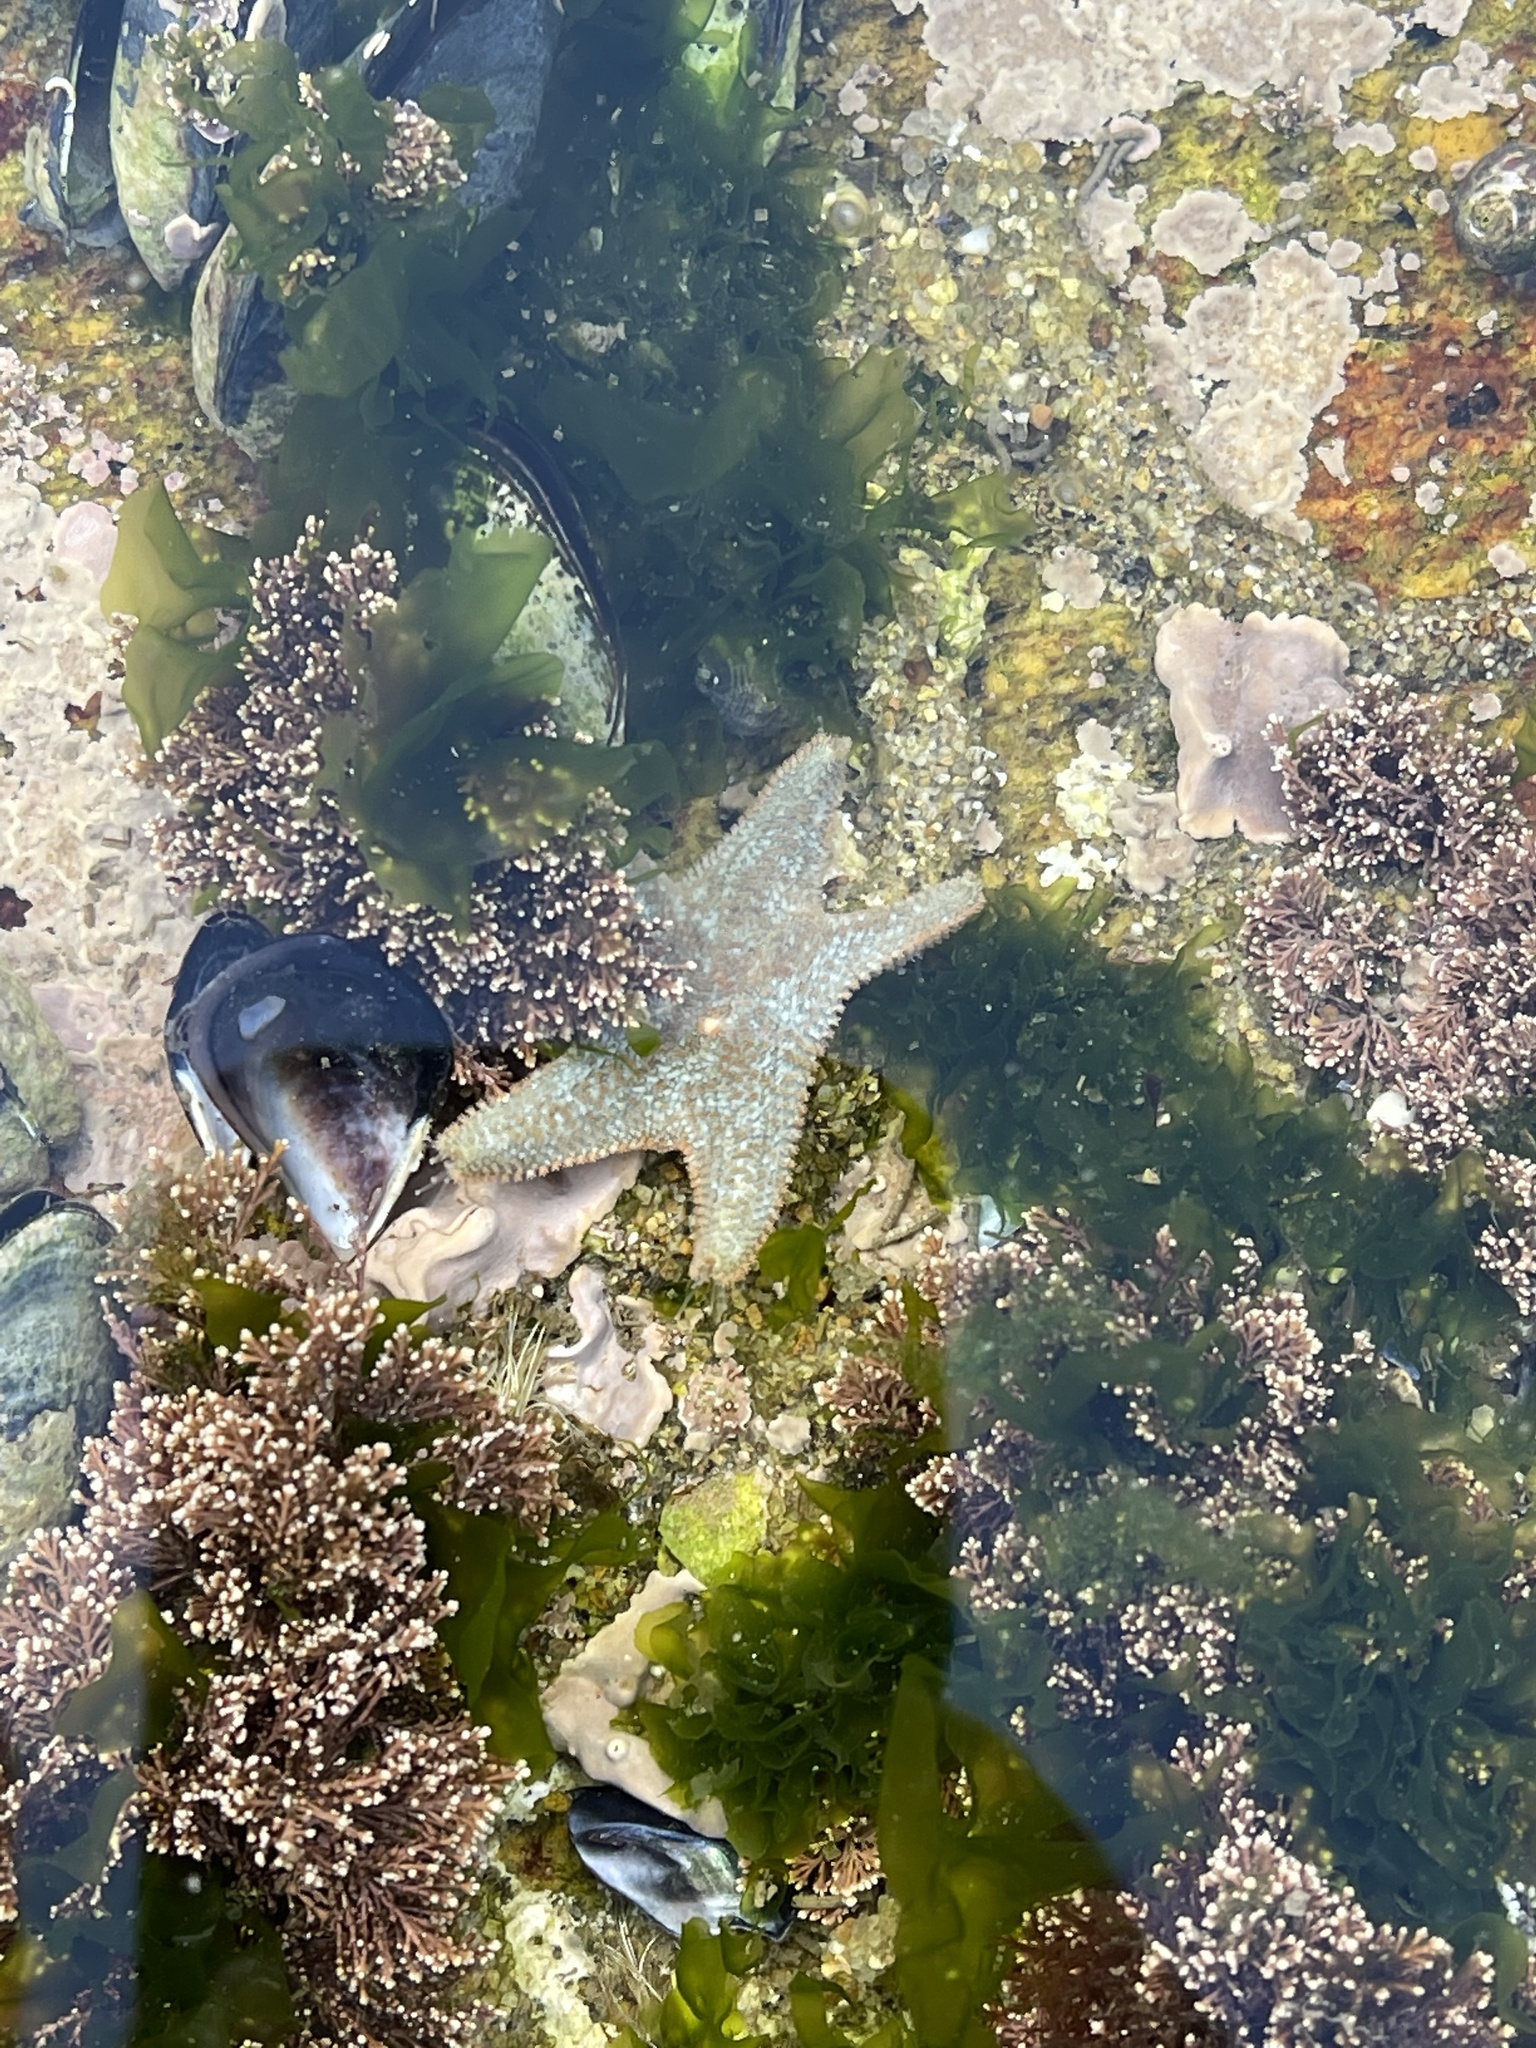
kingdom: Animalia
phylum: Echinodermata
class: Asteroidea
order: Valvatida
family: Asterinidae
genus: Asterina
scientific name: Asterina gibbosa
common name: Cushion star
